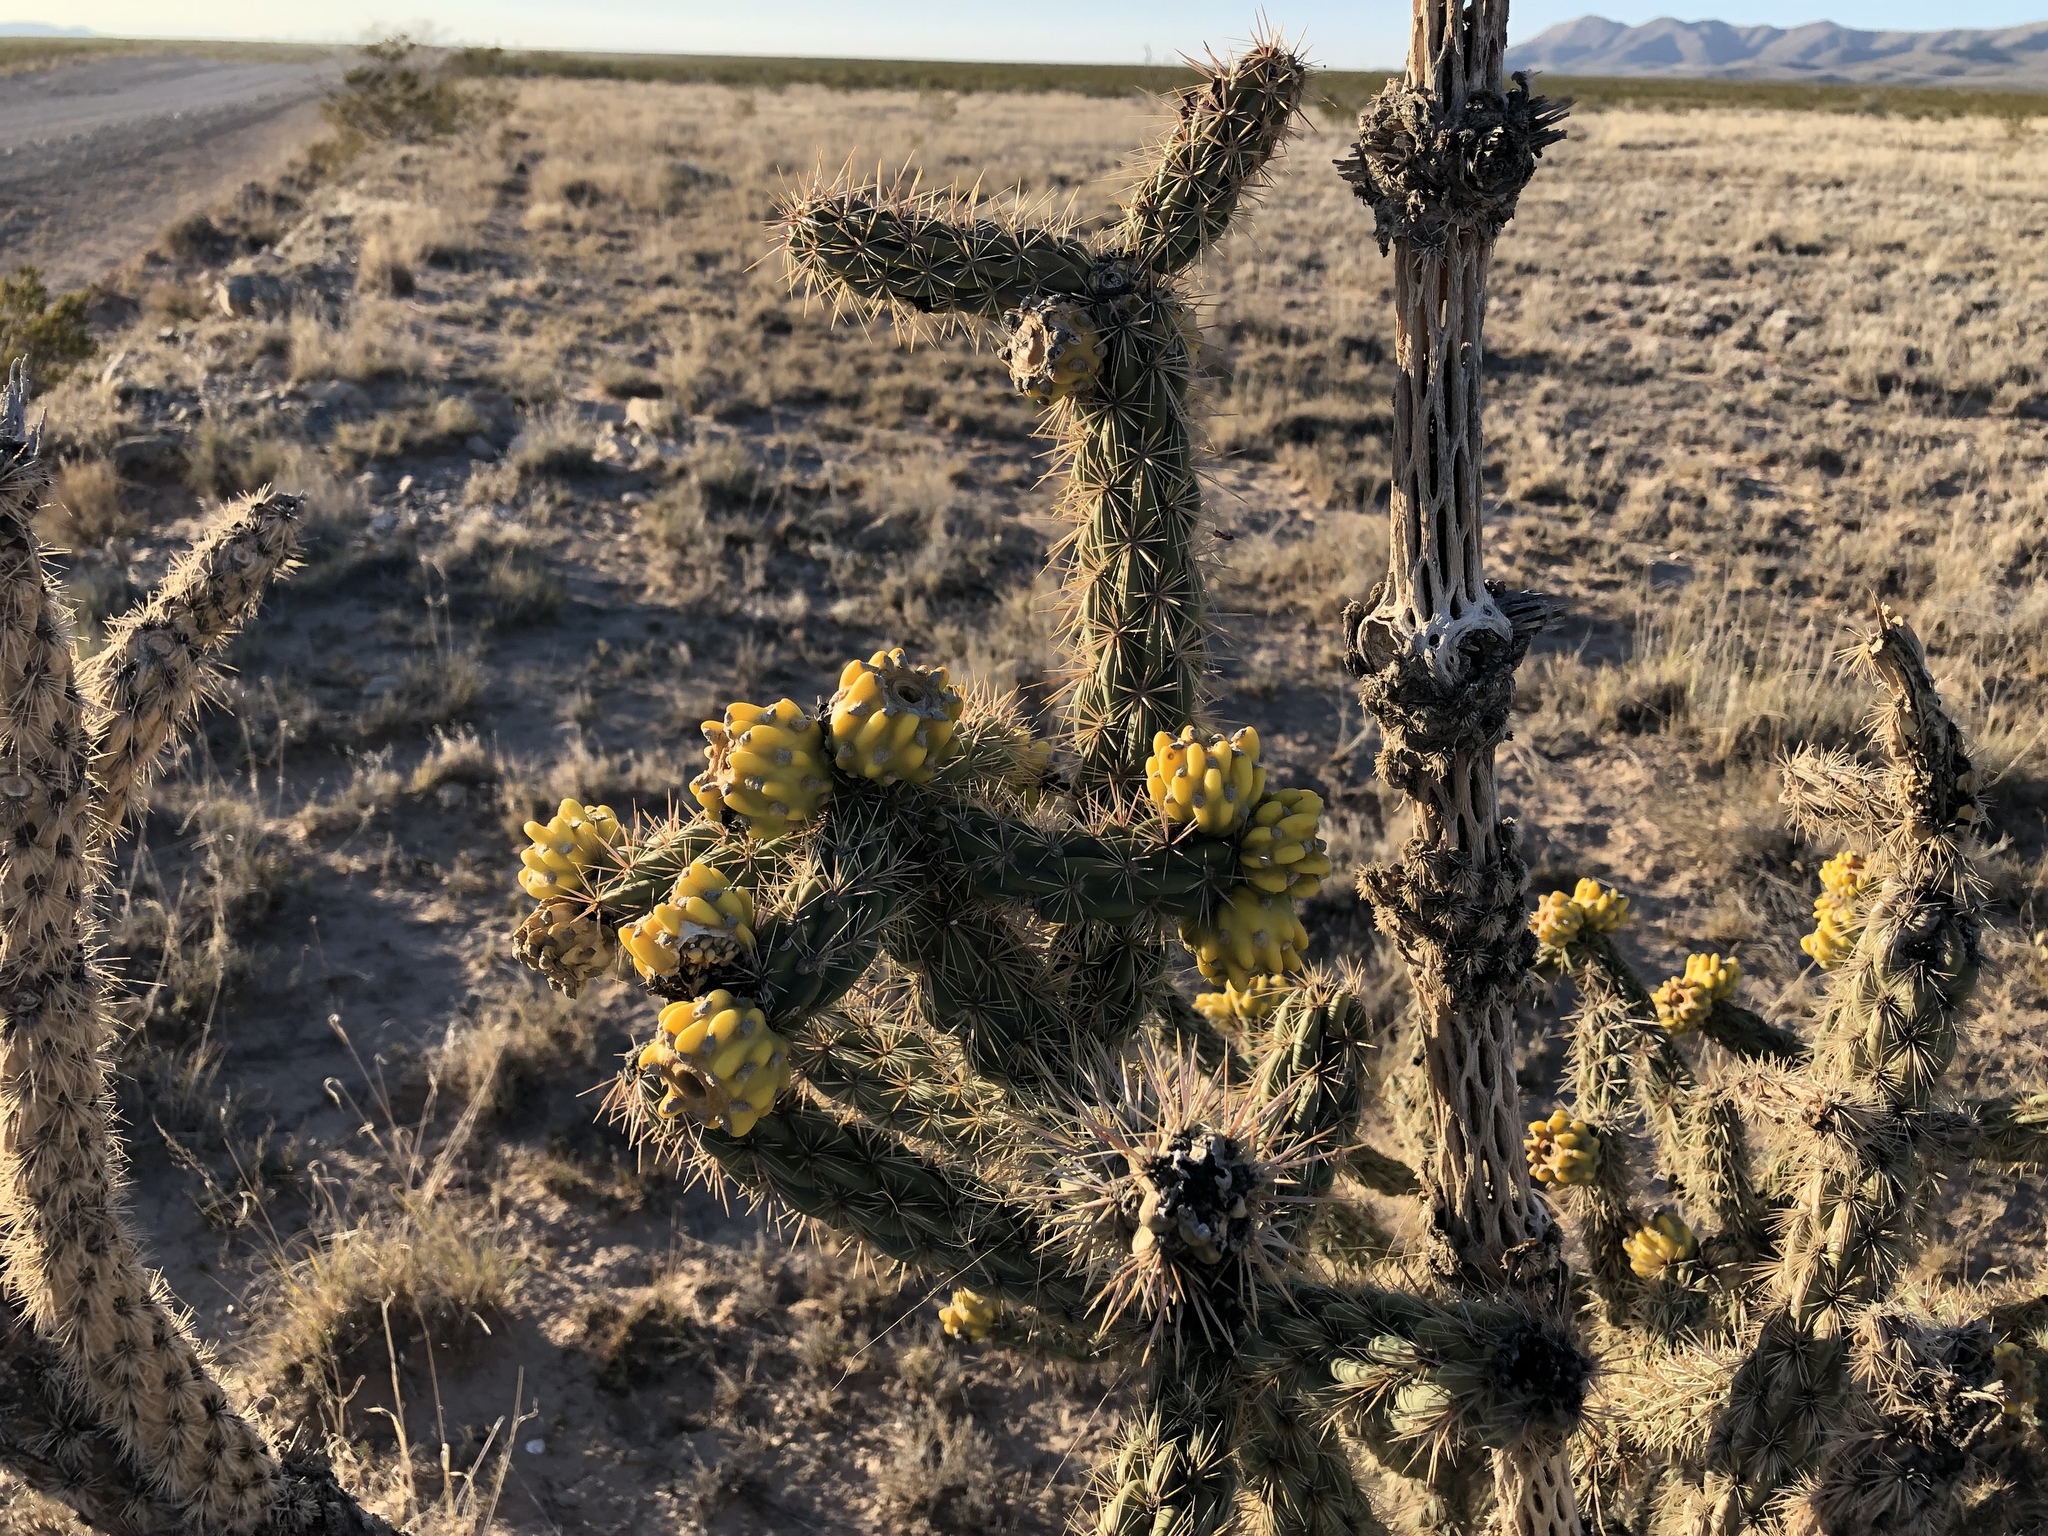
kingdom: Plantae
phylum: Tracheophyta
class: Magnoliopsida
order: Caryophyllales
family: Cactaceae
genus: Cylindropuntia
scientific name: Cylindropuntia imbricata
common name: Candelabrum cactus
